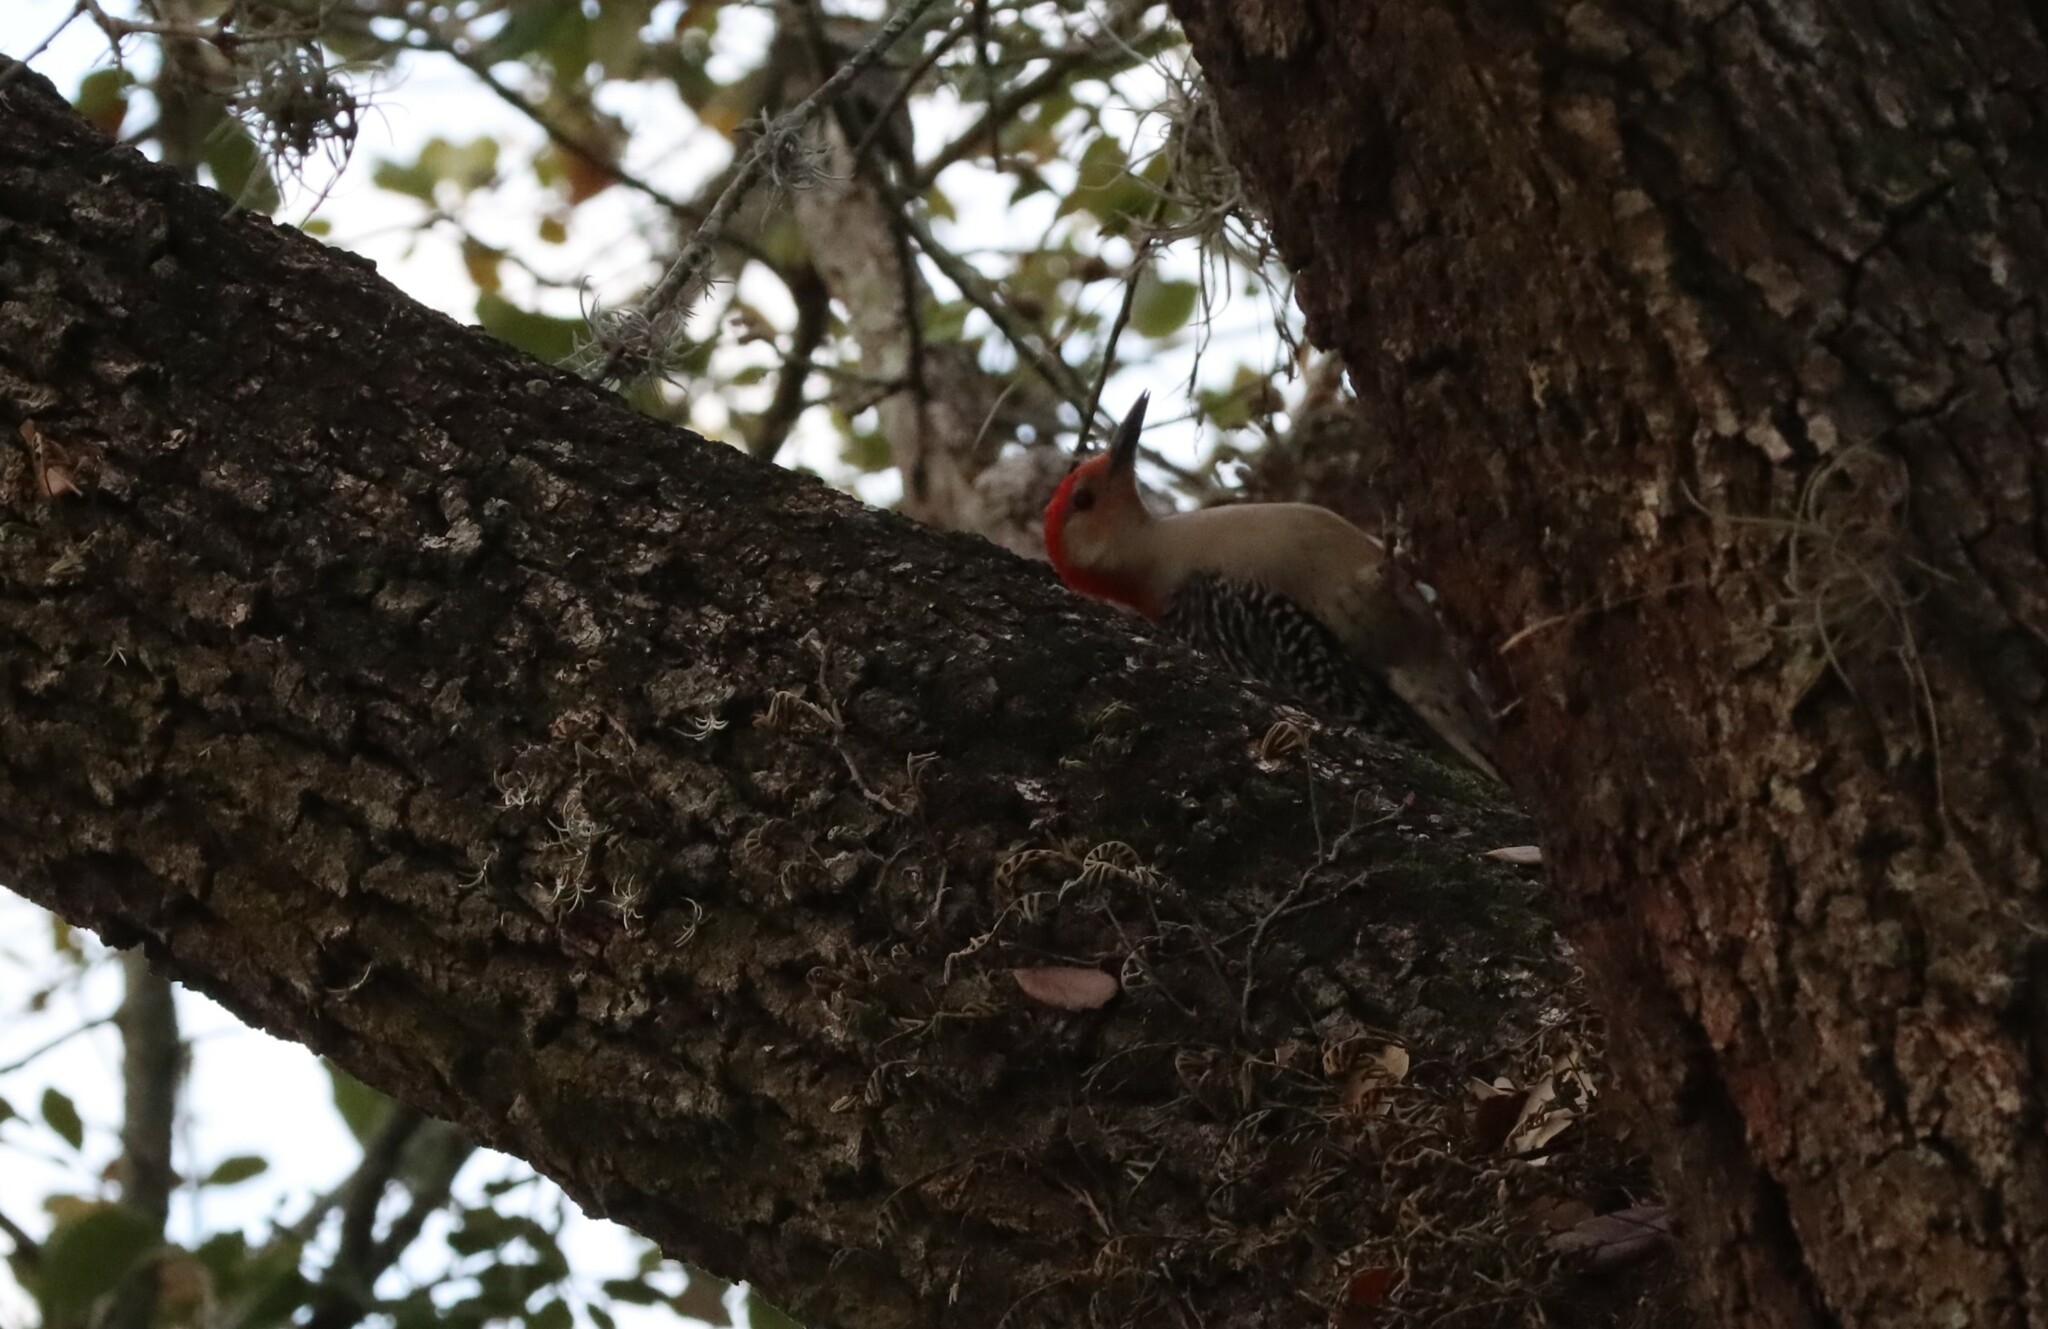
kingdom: Animalia
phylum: Chordata
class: Aves
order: Piciformes
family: Picidae
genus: Melanerpes
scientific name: Melanerpes carolinus
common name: Red-bellied woodpecker
